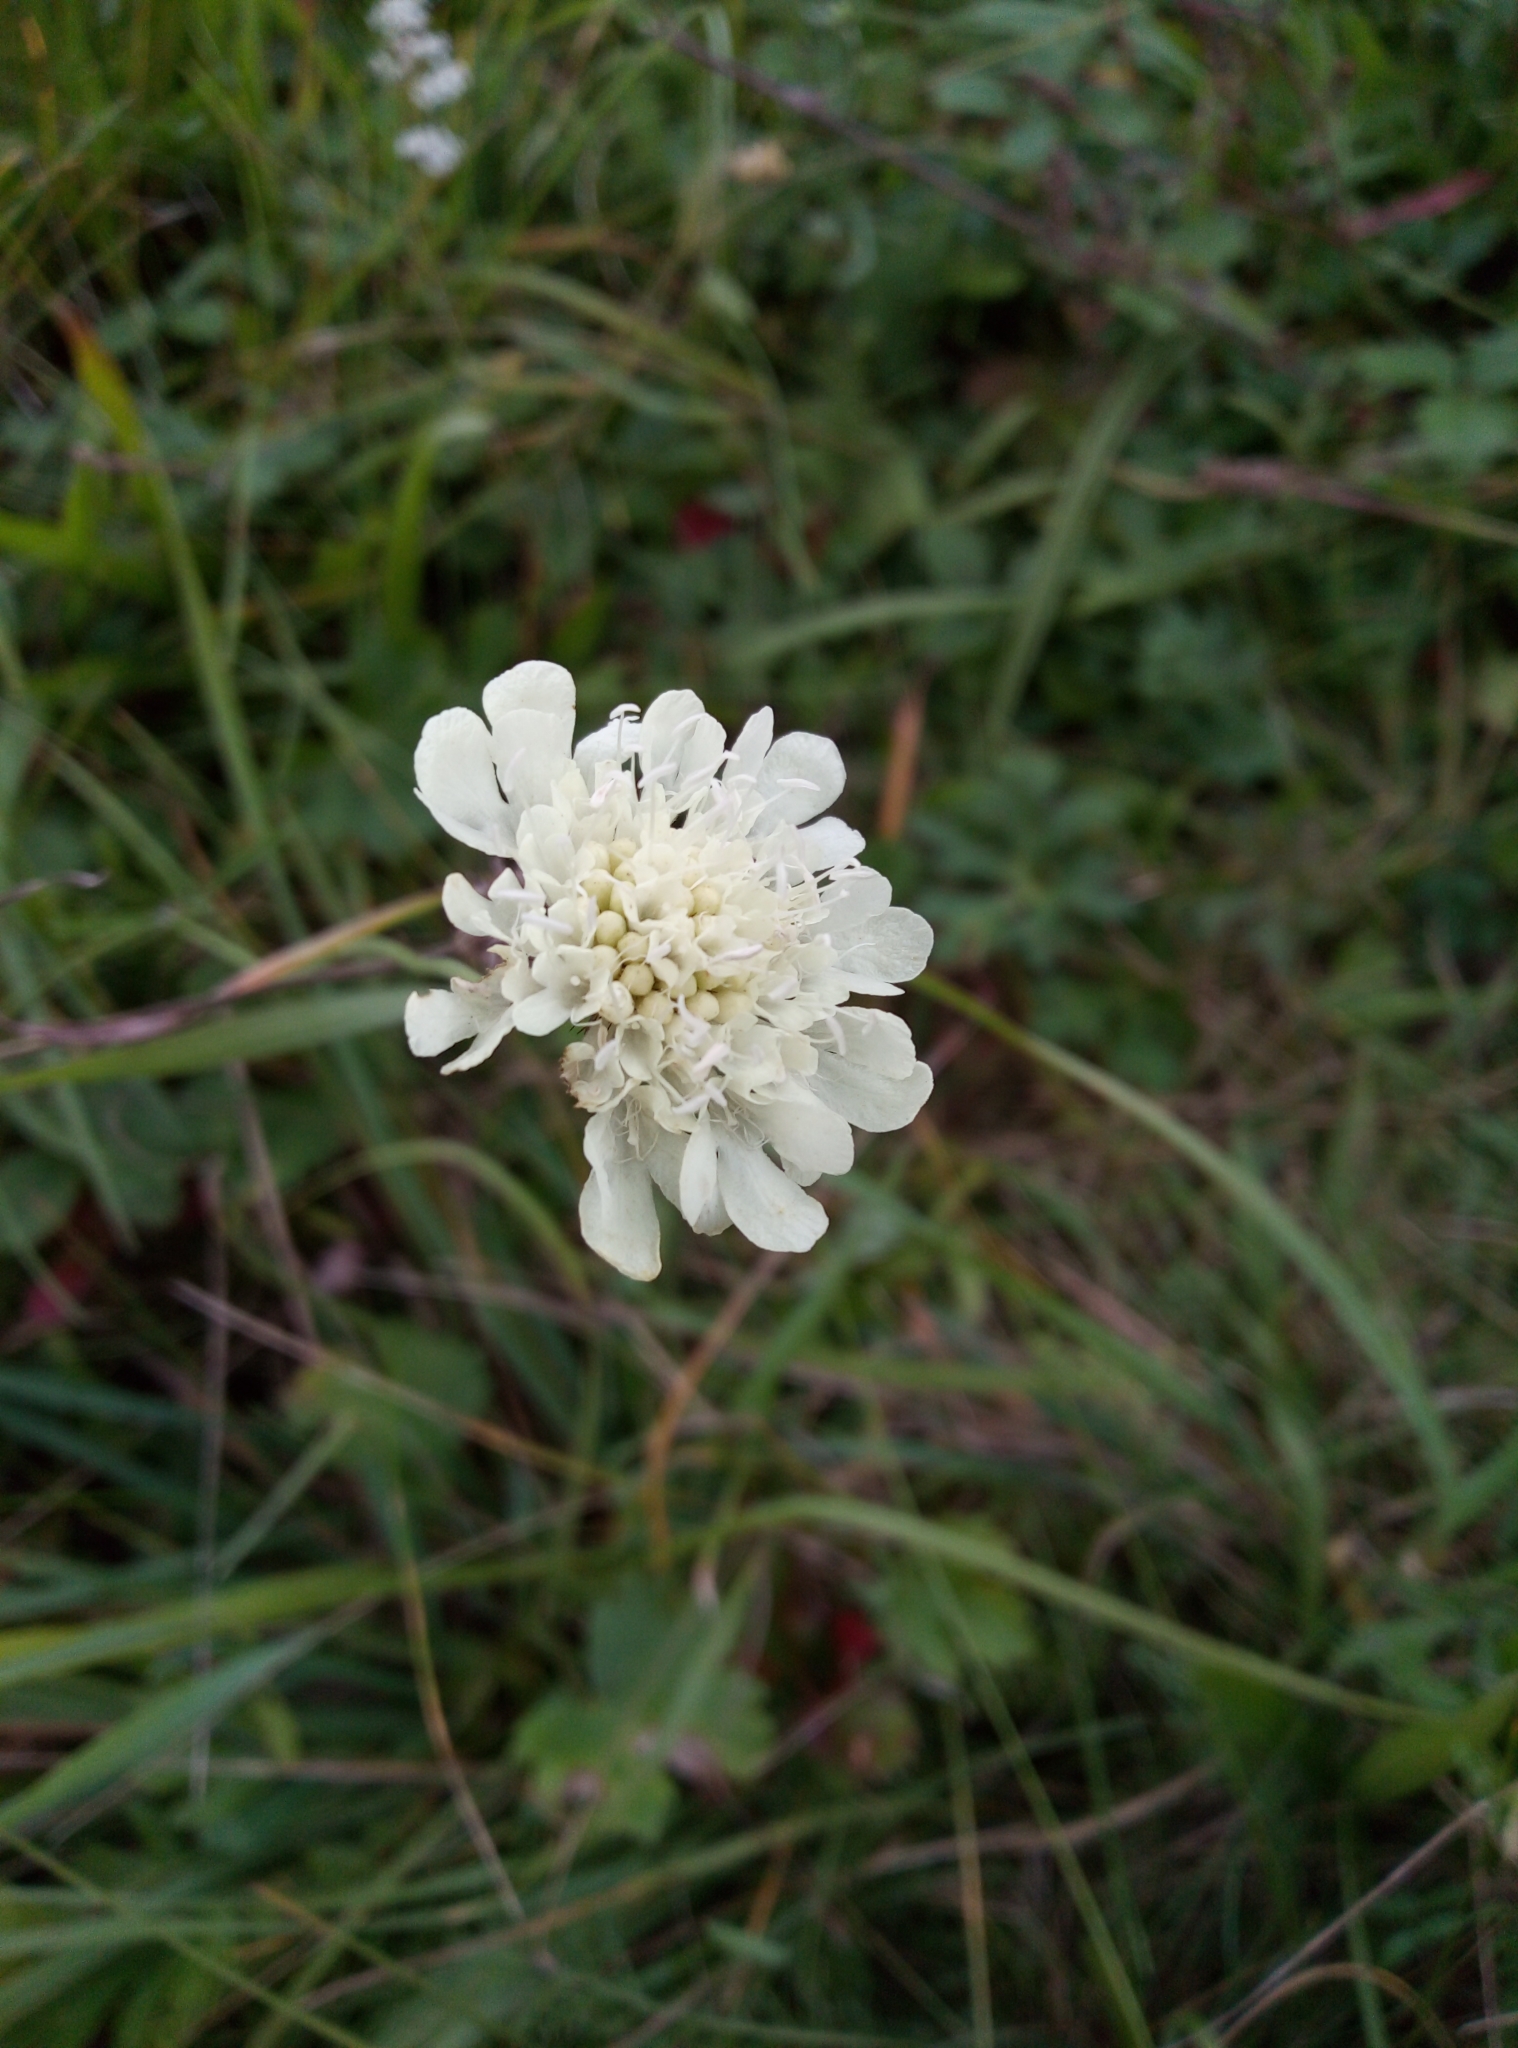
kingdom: Plantae
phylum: Tracheophyta
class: Magnoliopsida
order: Dipsacales
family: Caprifoliaceae
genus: Scabiosa
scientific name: Scabiosa ochroleuca
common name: Cream pincushions
